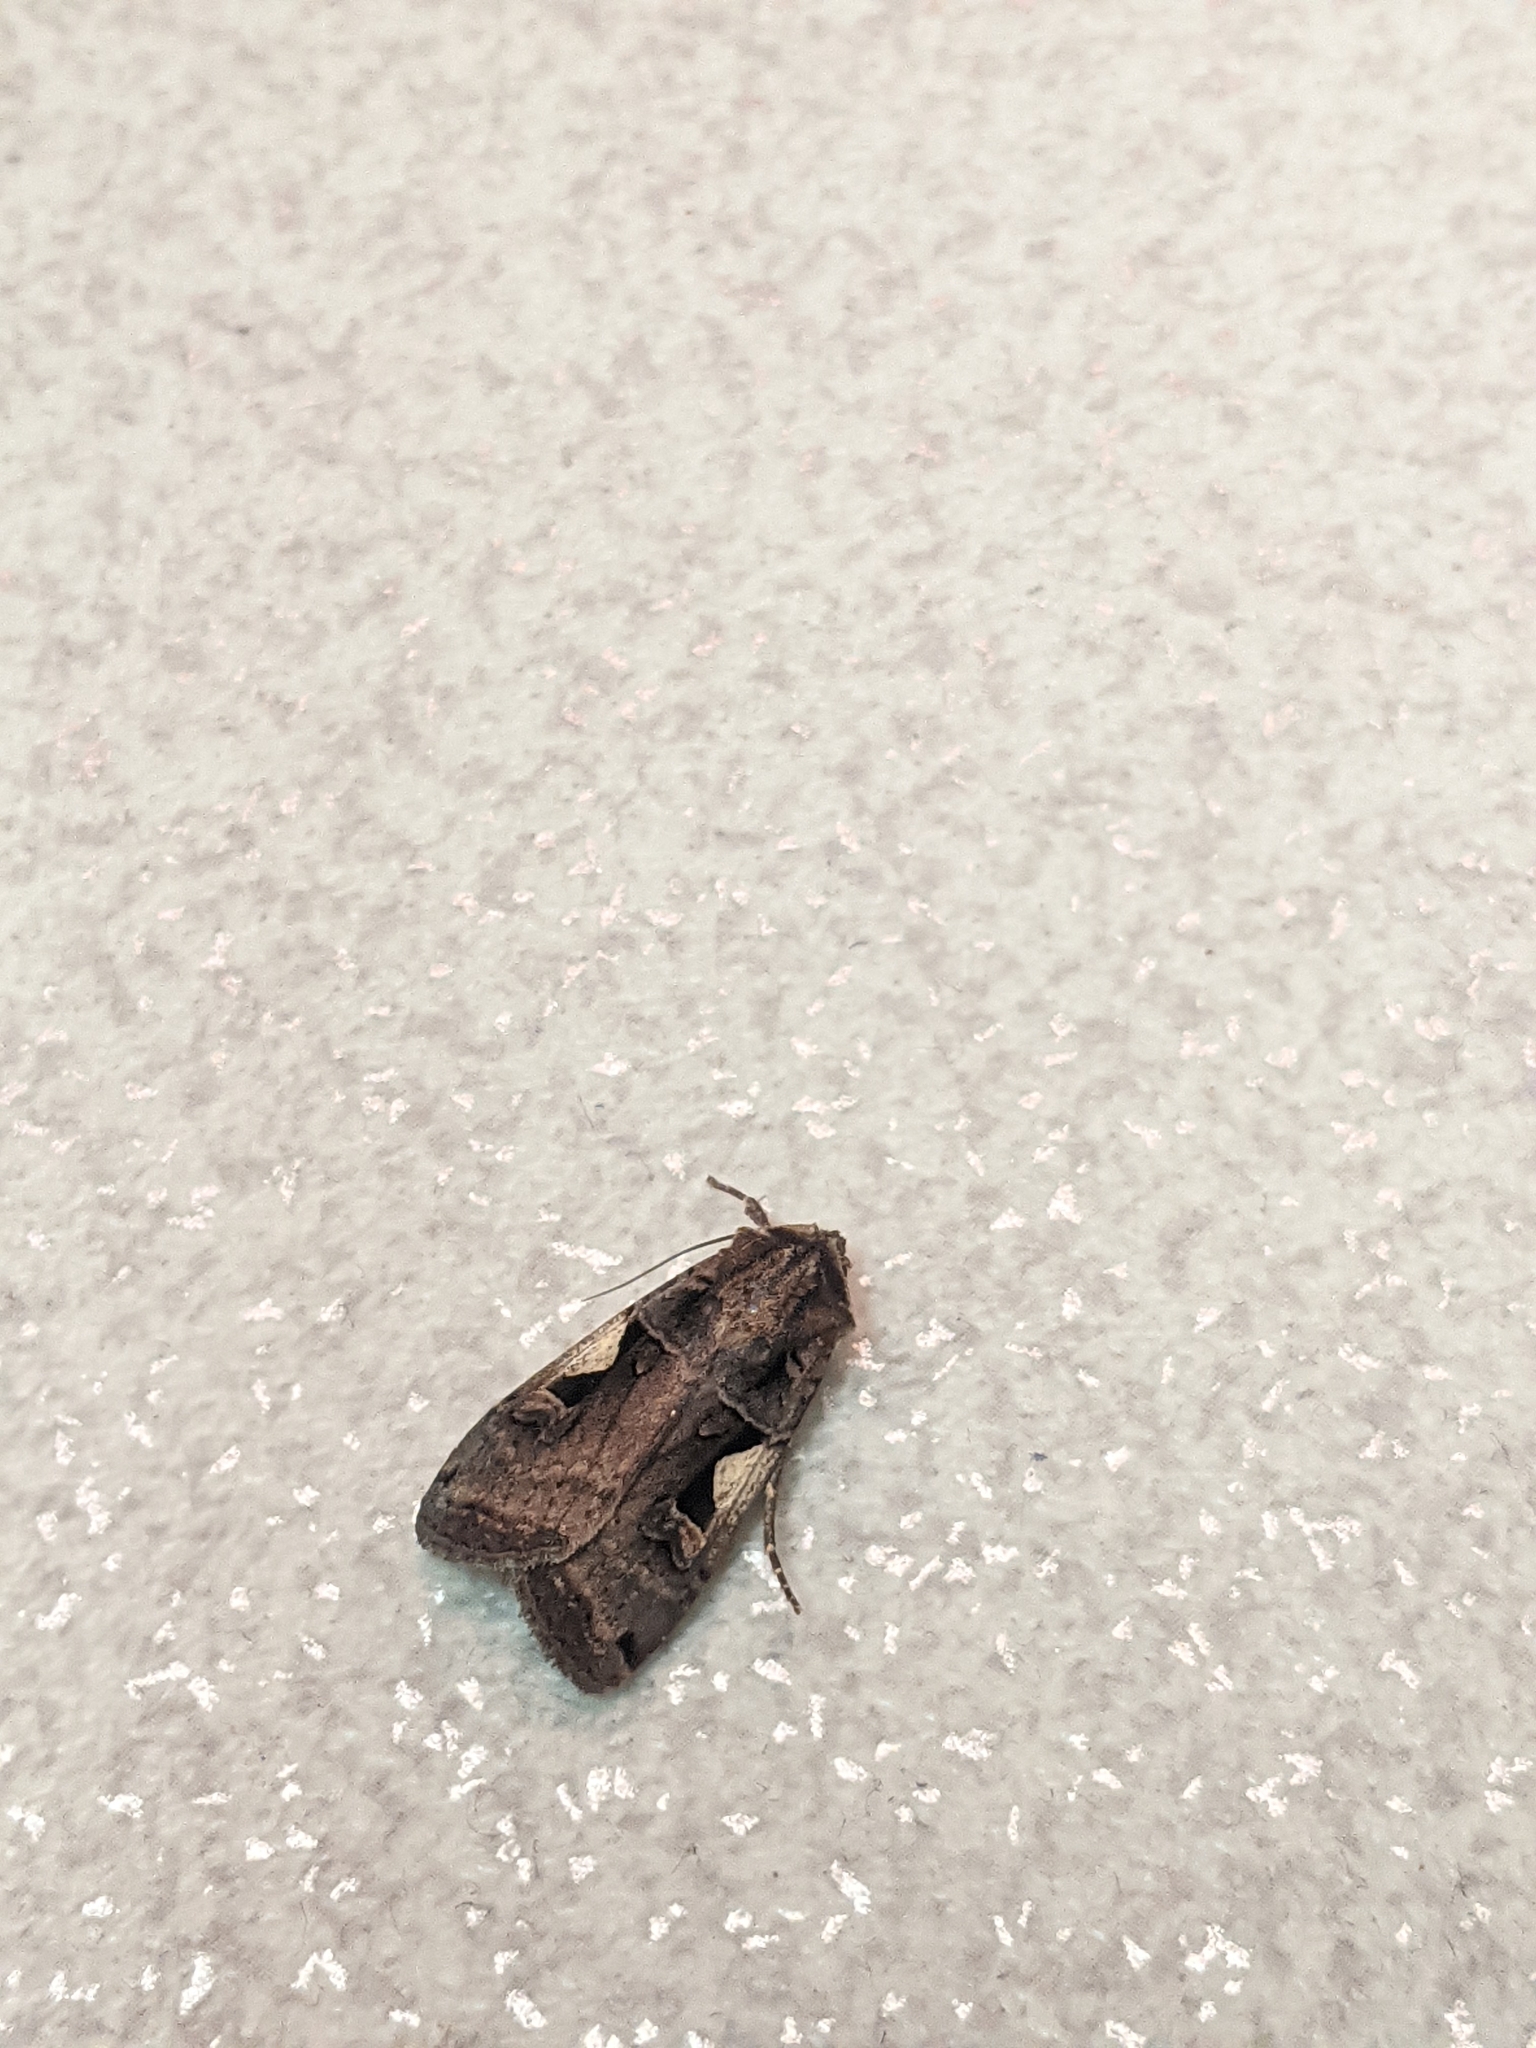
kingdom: Animalia
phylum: Arthropoda
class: Insecta
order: Lepidoptera
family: Noctuidae
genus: Xestia
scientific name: Xestia c-nigrum
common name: Setaceous hebrew character
